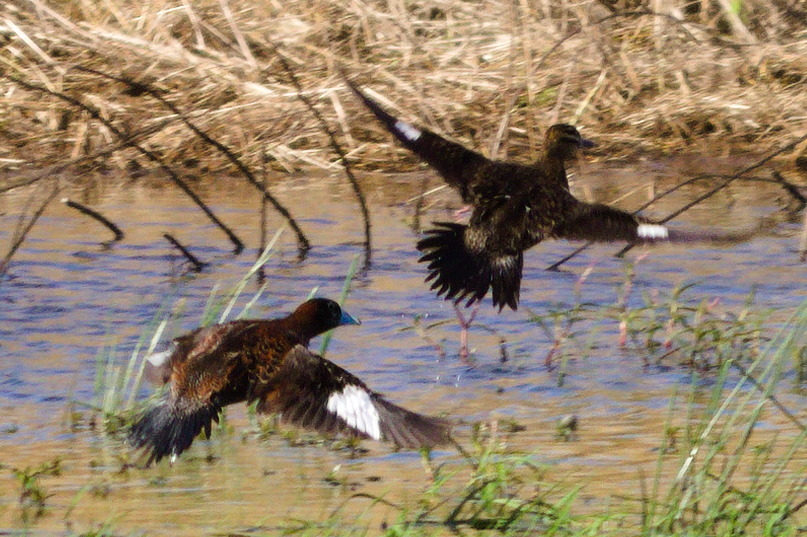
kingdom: Animalia
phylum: Chordata
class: Aves
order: Anseriformes
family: Anatidae
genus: Nomonyx
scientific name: Nomonyx dominicus
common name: Masked duck
